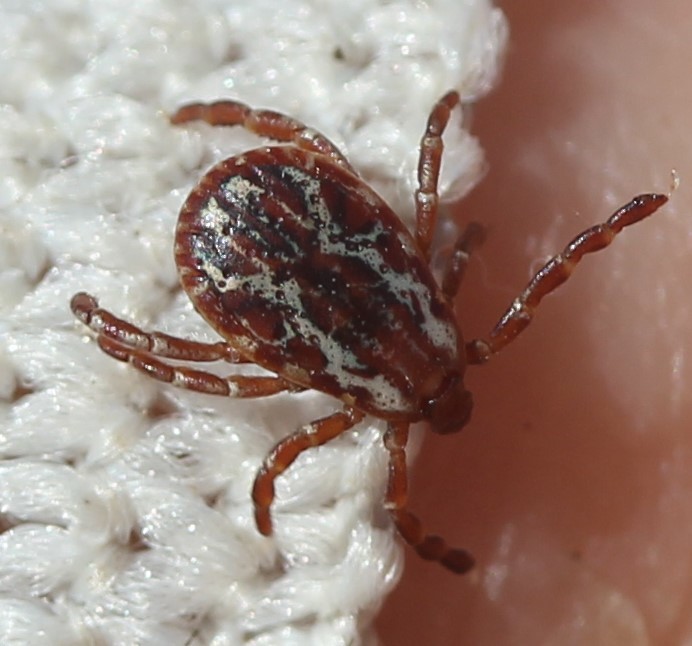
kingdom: Animalia
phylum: Arthropoda
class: Arachnida
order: Ixodida
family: Ixodidae
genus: Dermacentor
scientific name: Dermacentor variabilis
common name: American dog tick
